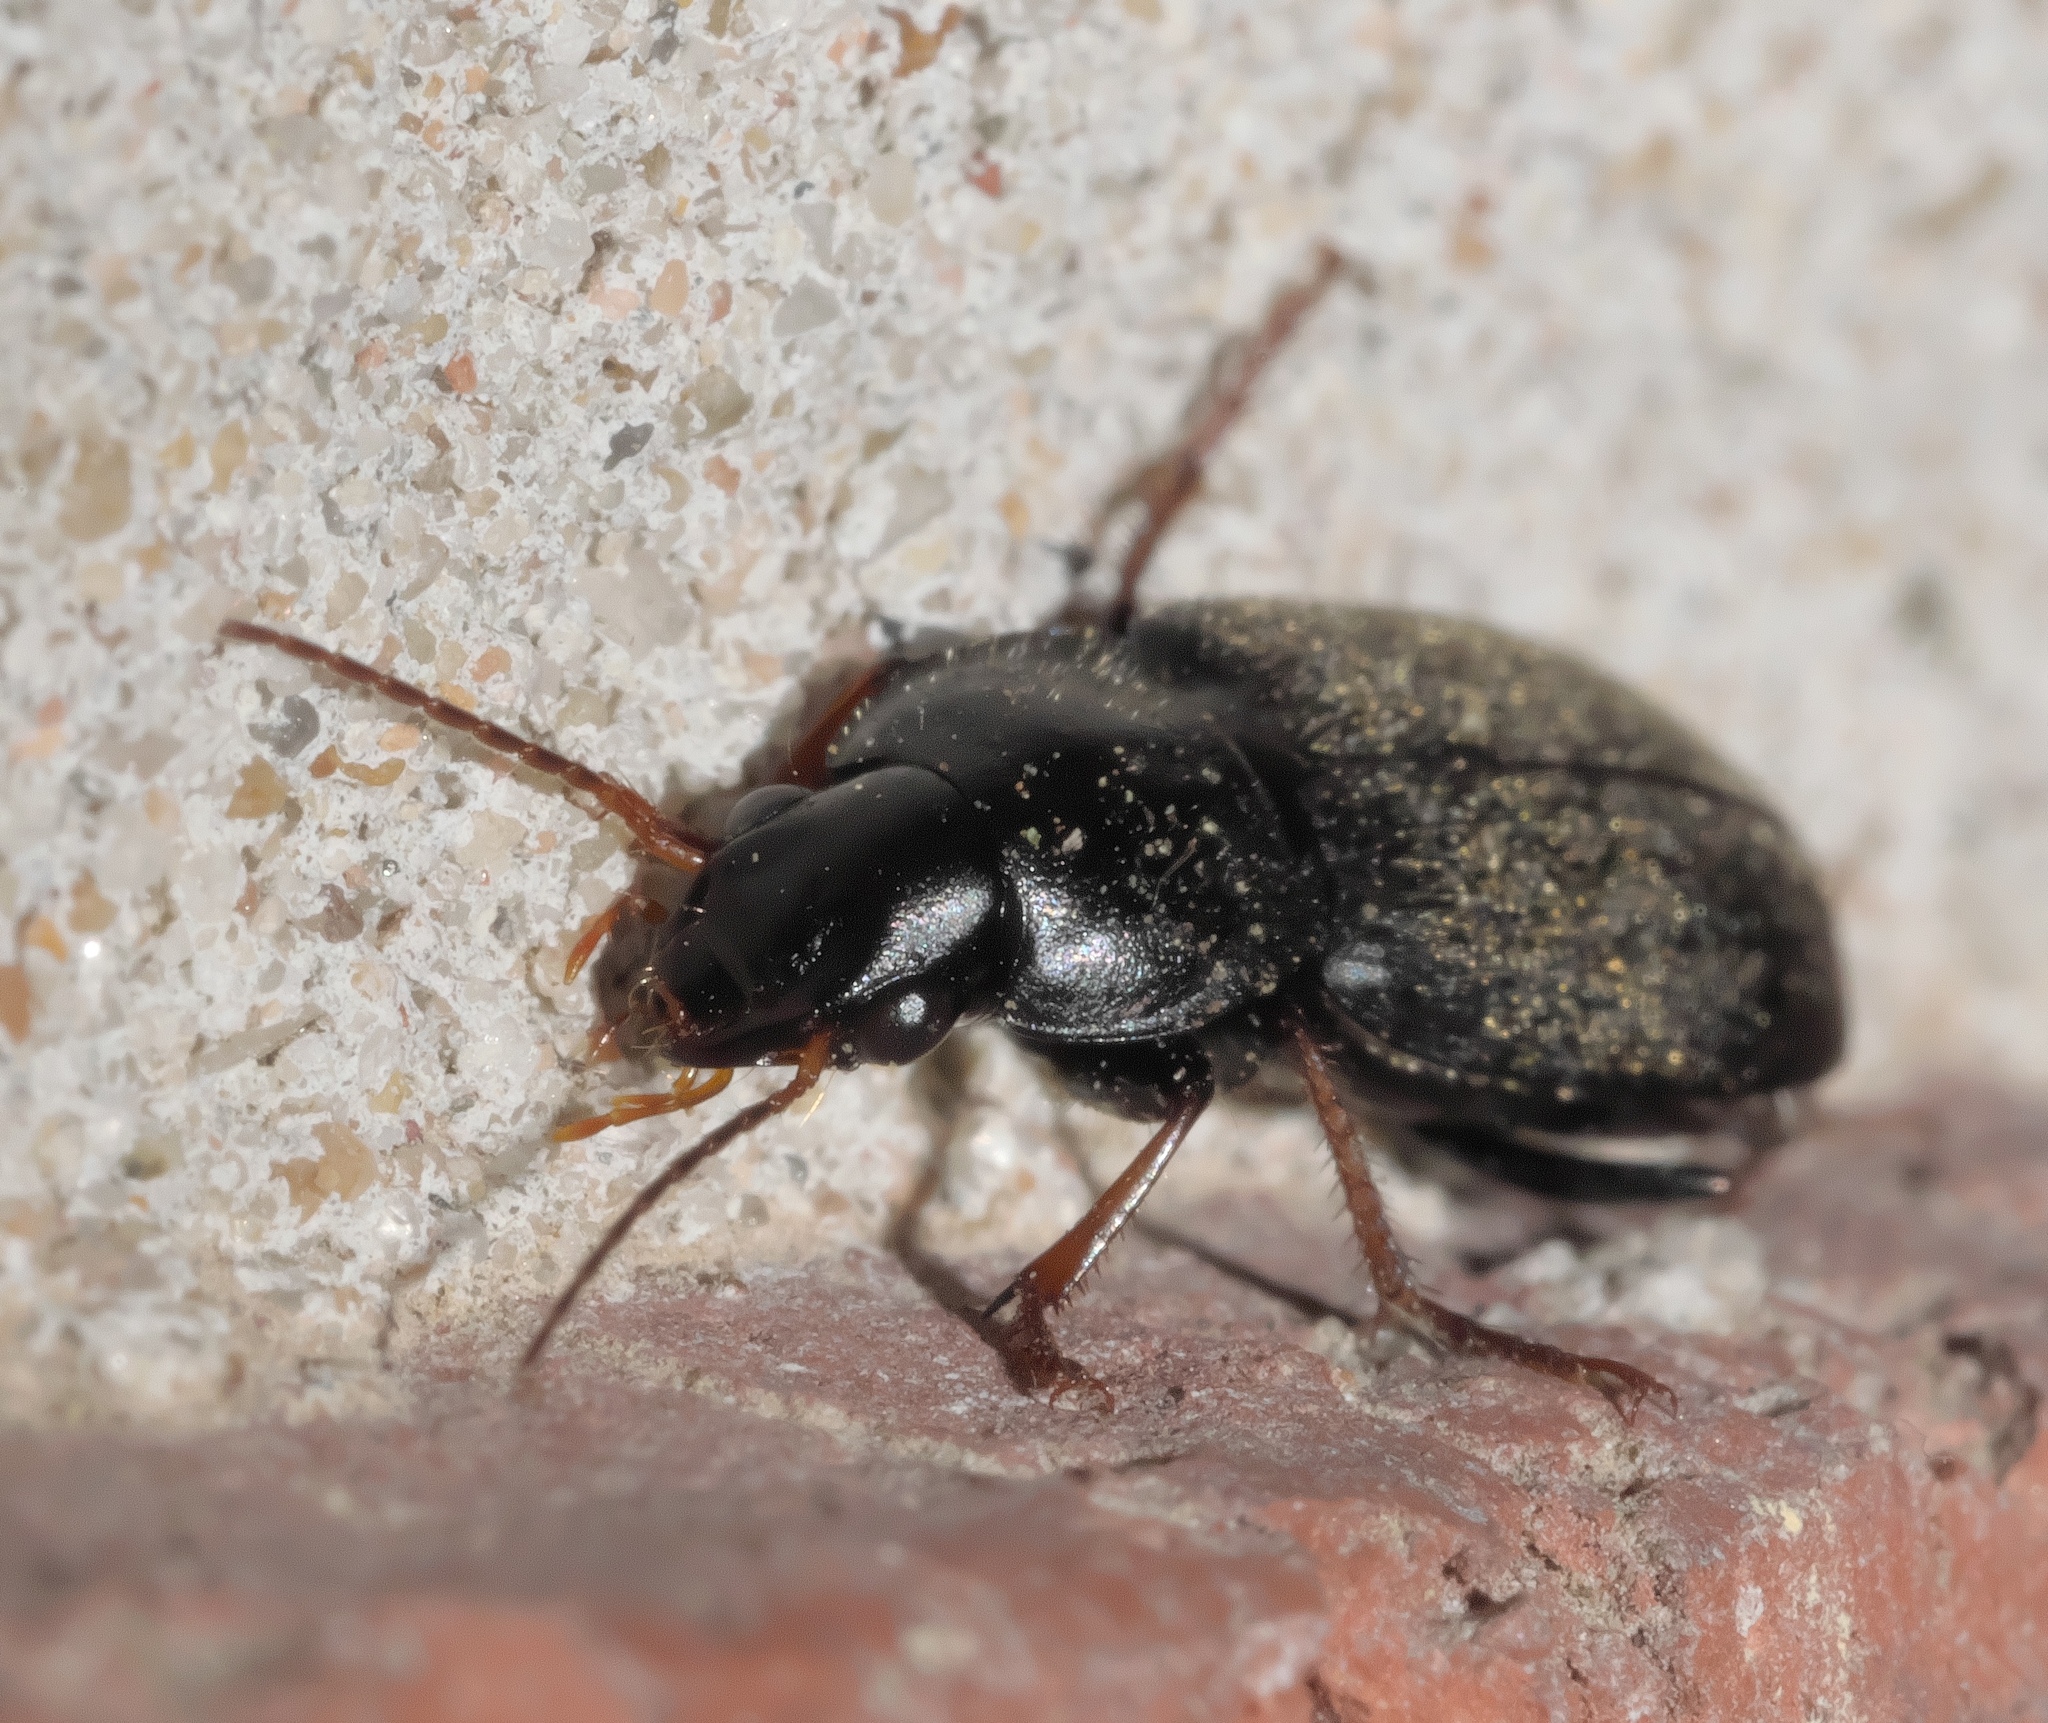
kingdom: Animalia
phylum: Arthropoda
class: Insecta
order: Coleoptera
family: Carabidae
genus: Amphasia
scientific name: Amphasia sericea
